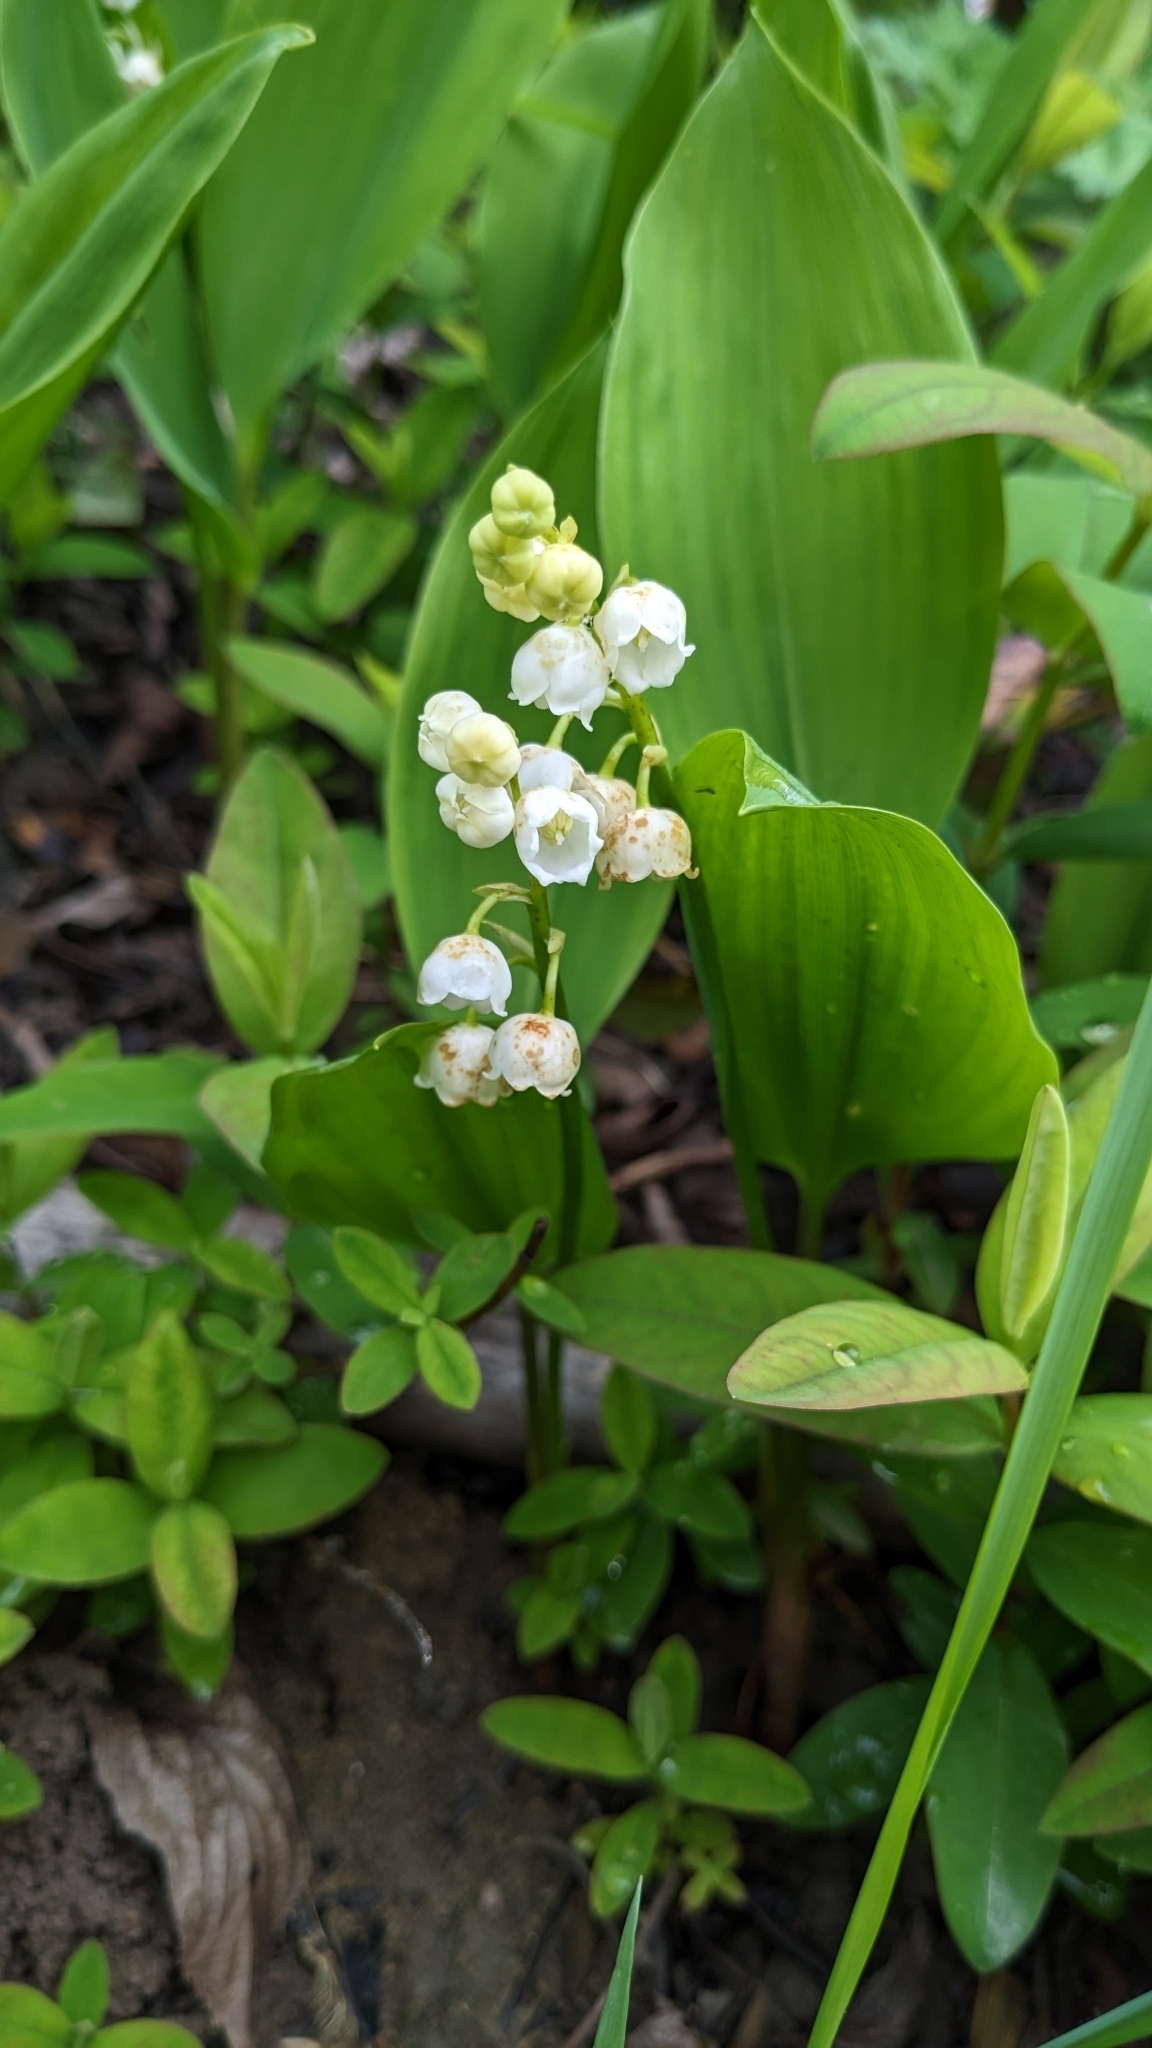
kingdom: Plantae
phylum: Tracheophyta
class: Liliopsida
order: Asparagales
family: Asparagaceae
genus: Convallaria
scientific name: Convallaria majalis
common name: Lily-of-the-valley
